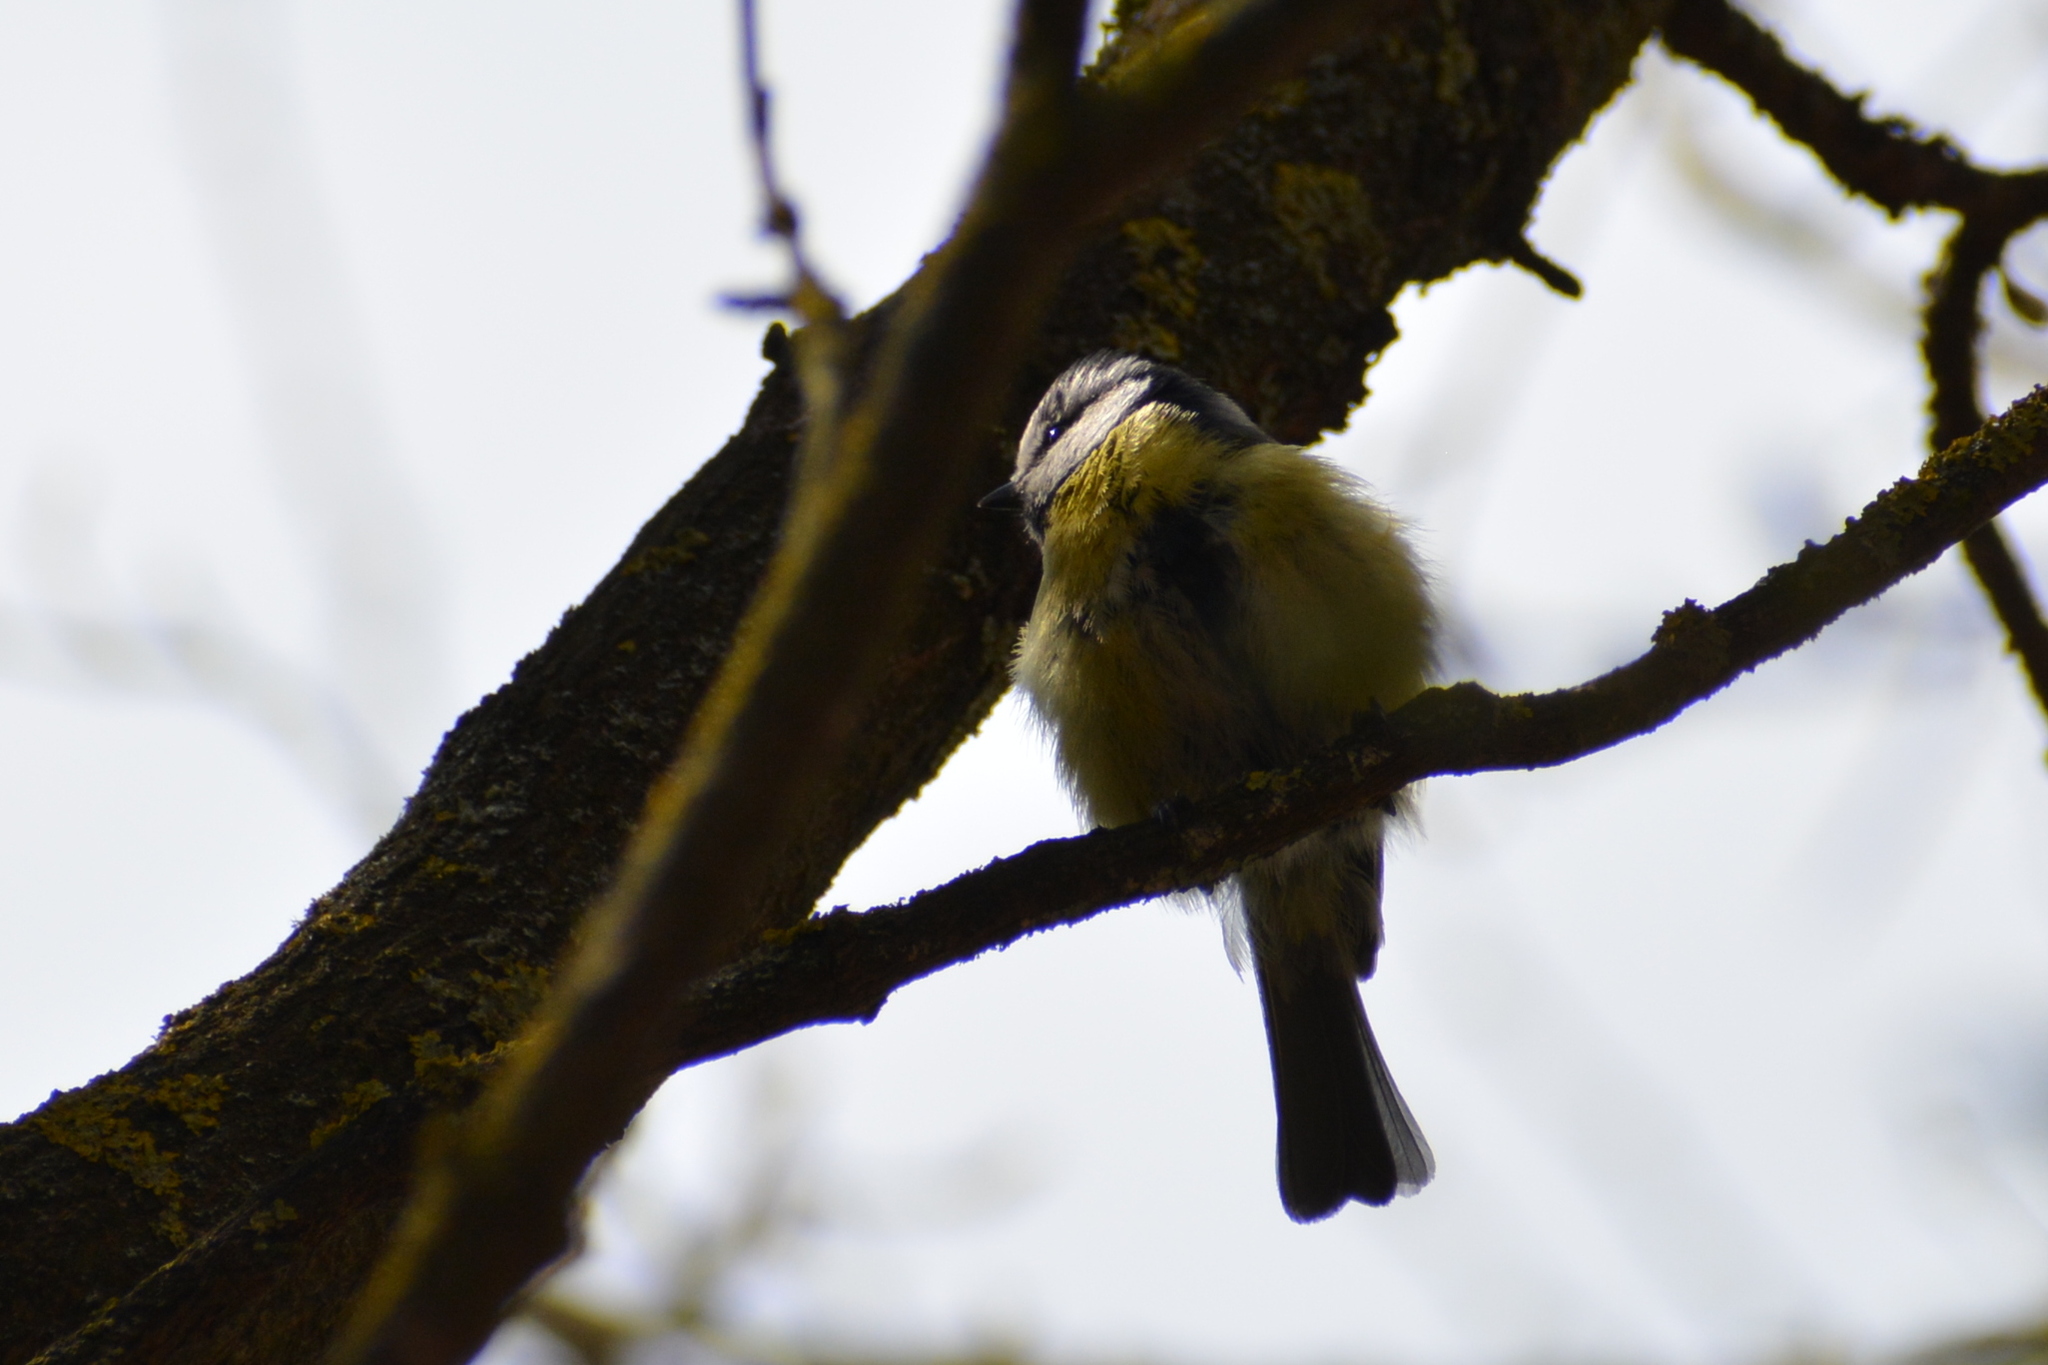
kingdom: Animalia
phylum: Chordata
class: Aves
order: Passeriformes
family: Paridae
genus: Cyanistes
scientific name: Cyanistes caeruleus
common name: Eurasian blue tit
